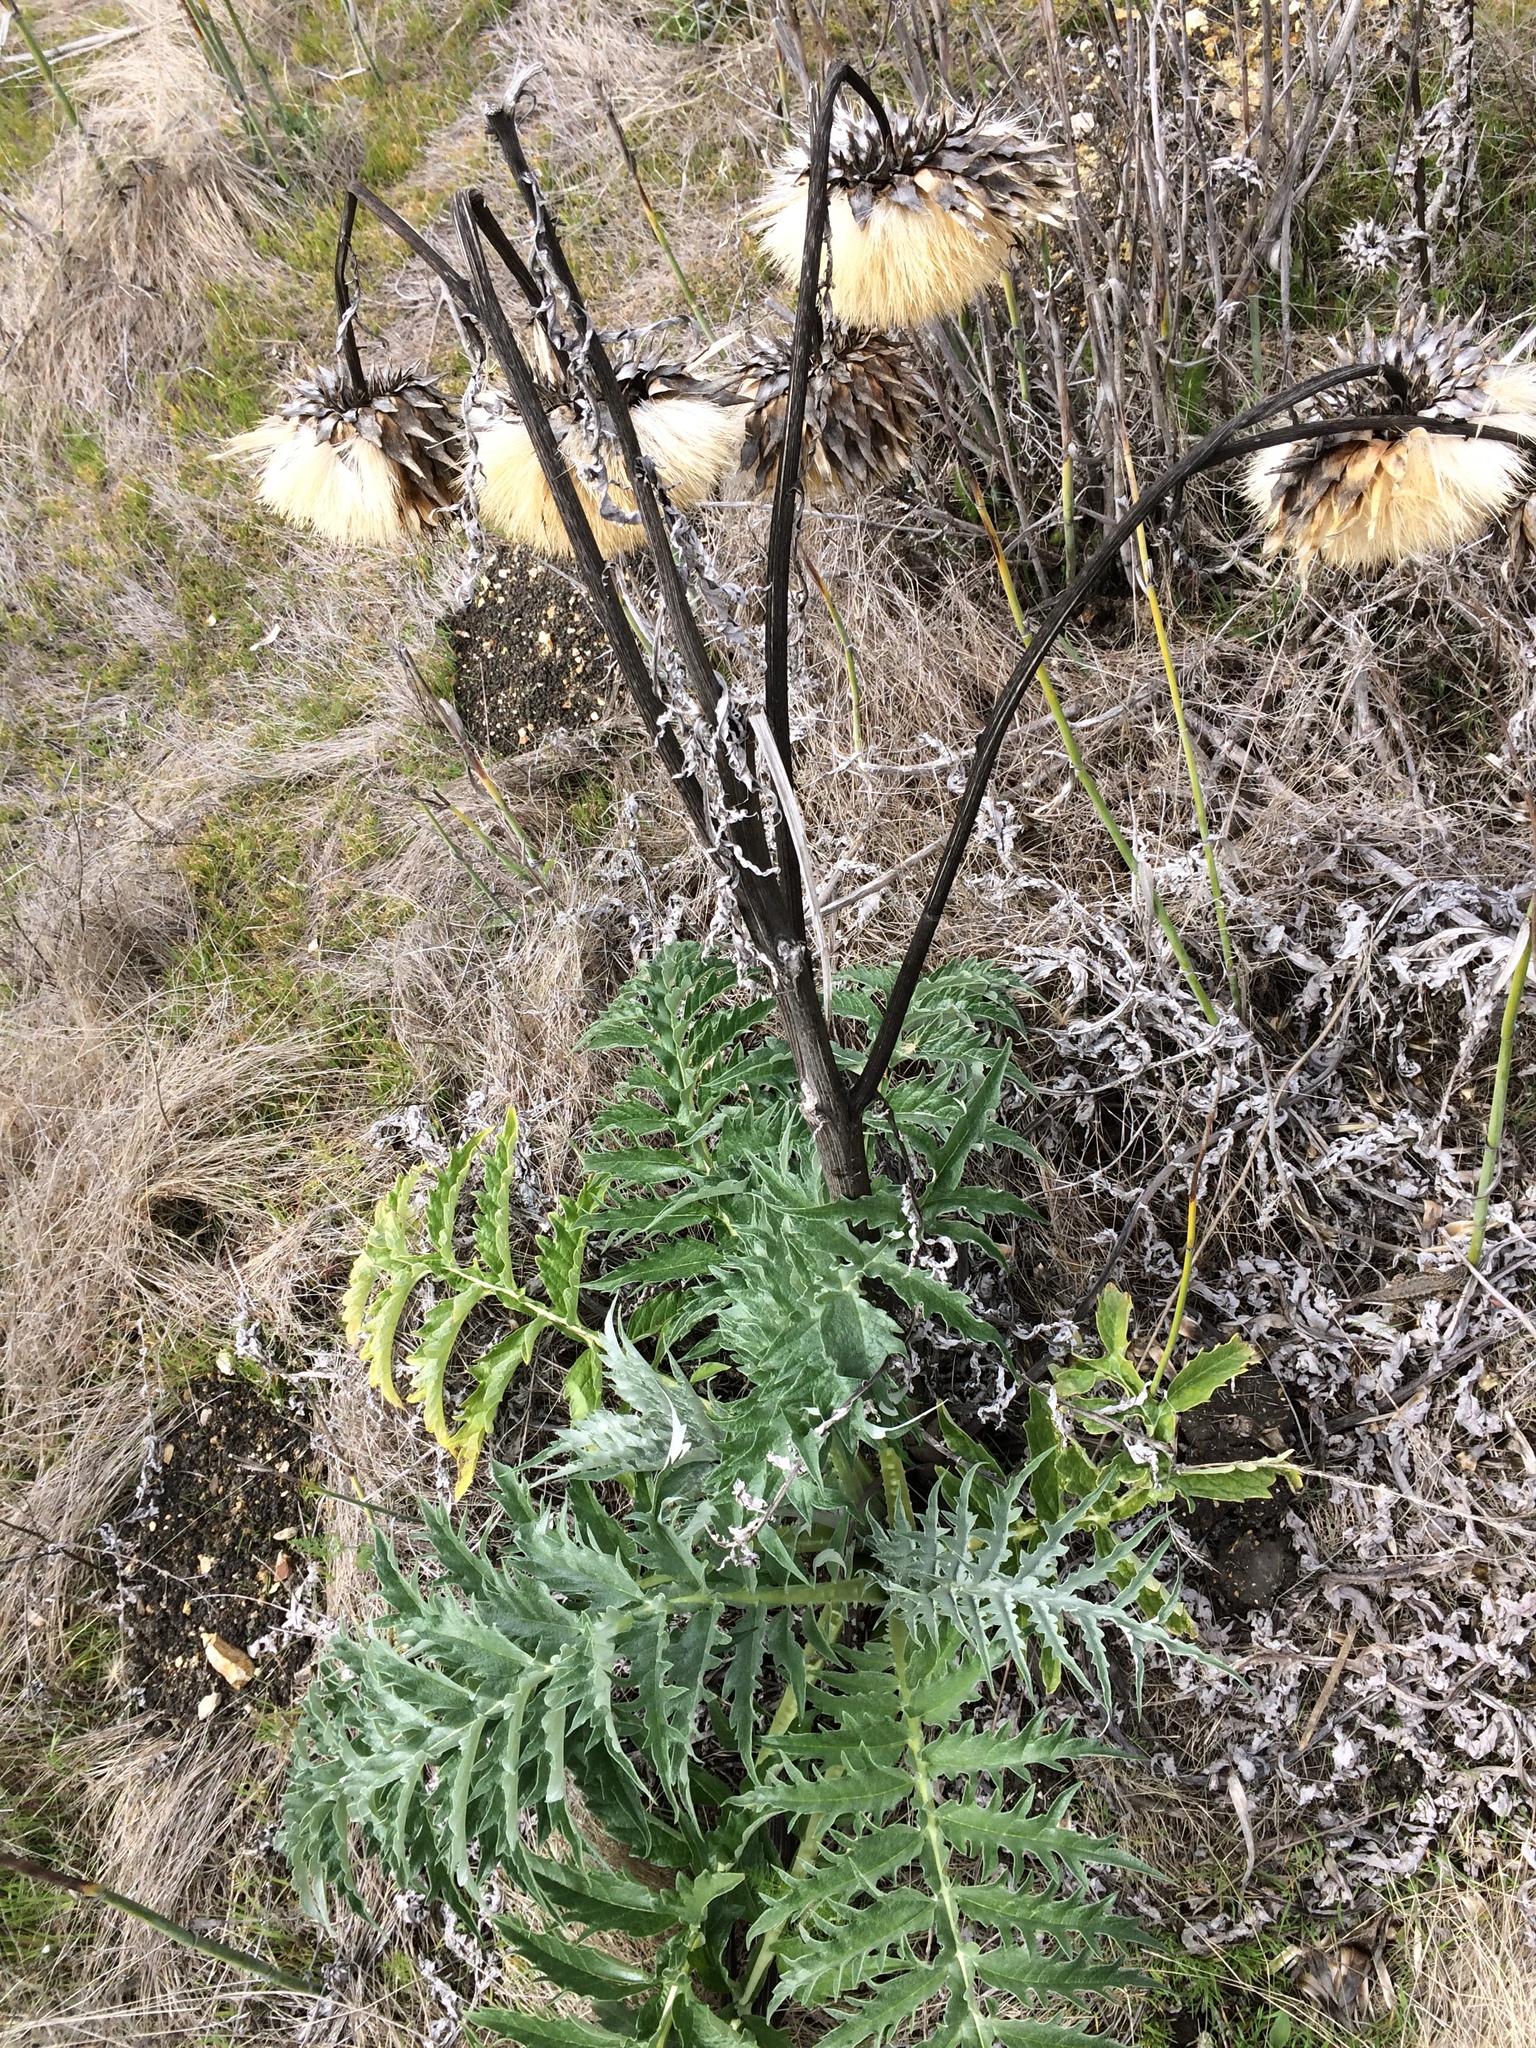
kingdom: Plantae
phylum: Tracheophyta
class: Magnoliopsida
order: Asterales
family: Asteraceae
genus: Cynara
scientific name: Cynara cardunculus
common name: Globe artichoke
